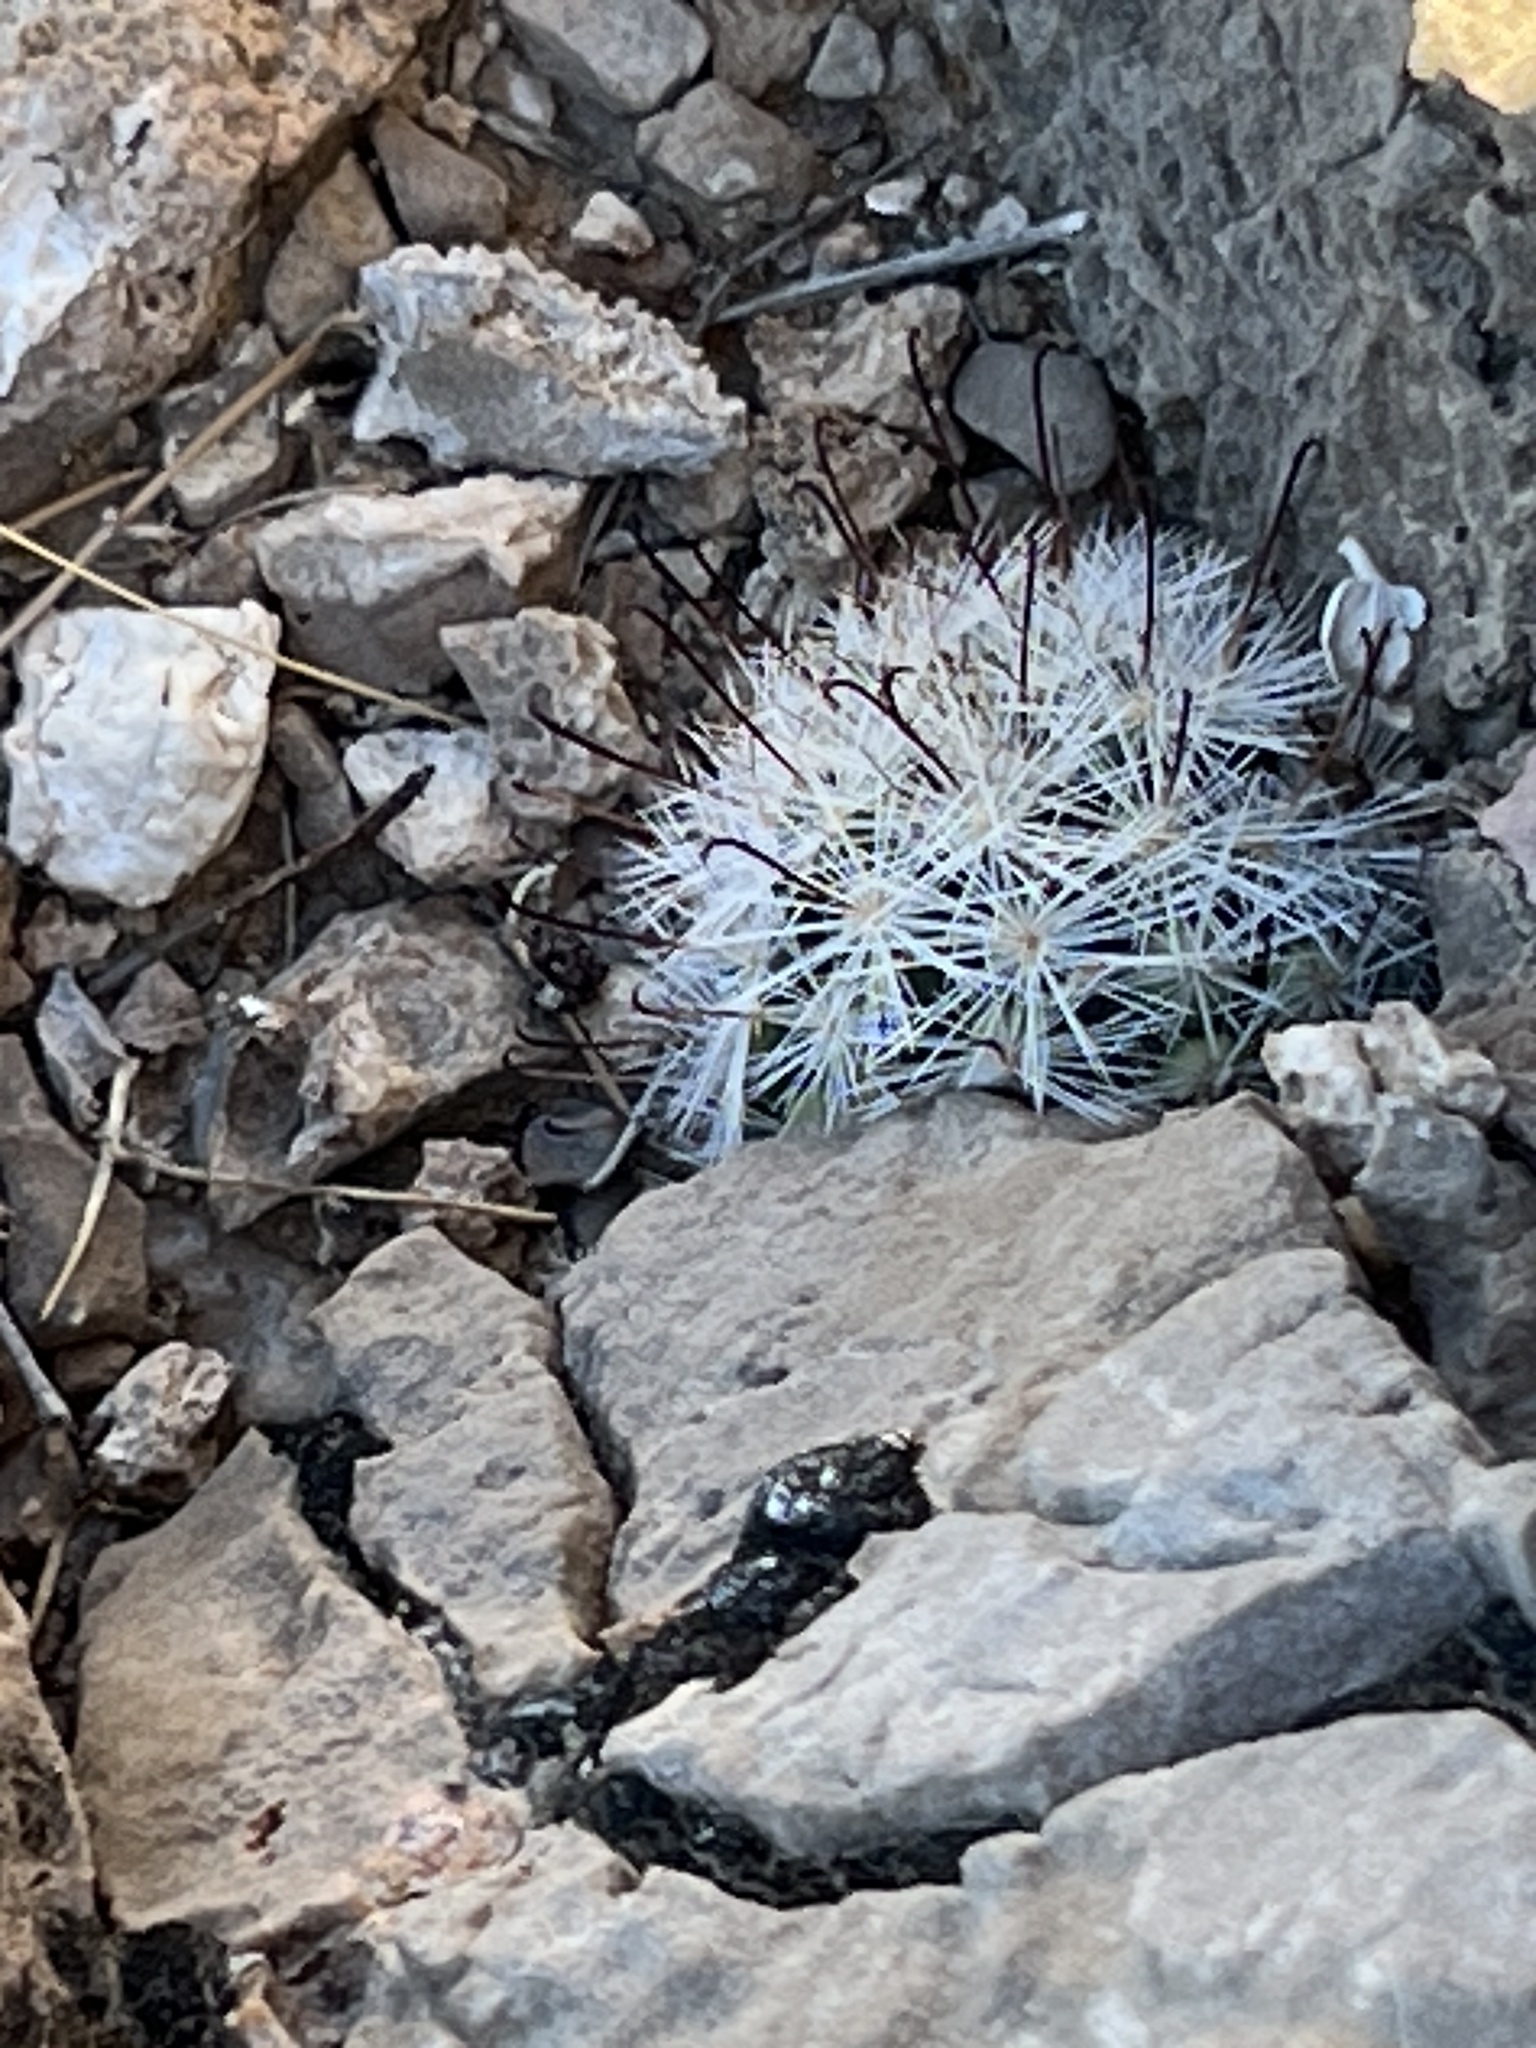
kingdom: Plantae
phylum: Tracheophyta
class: Magnoliopsida
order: Caryophyllales
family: Cactaceae
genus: Cochemiea
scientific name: Cochemiea tetrancistra
